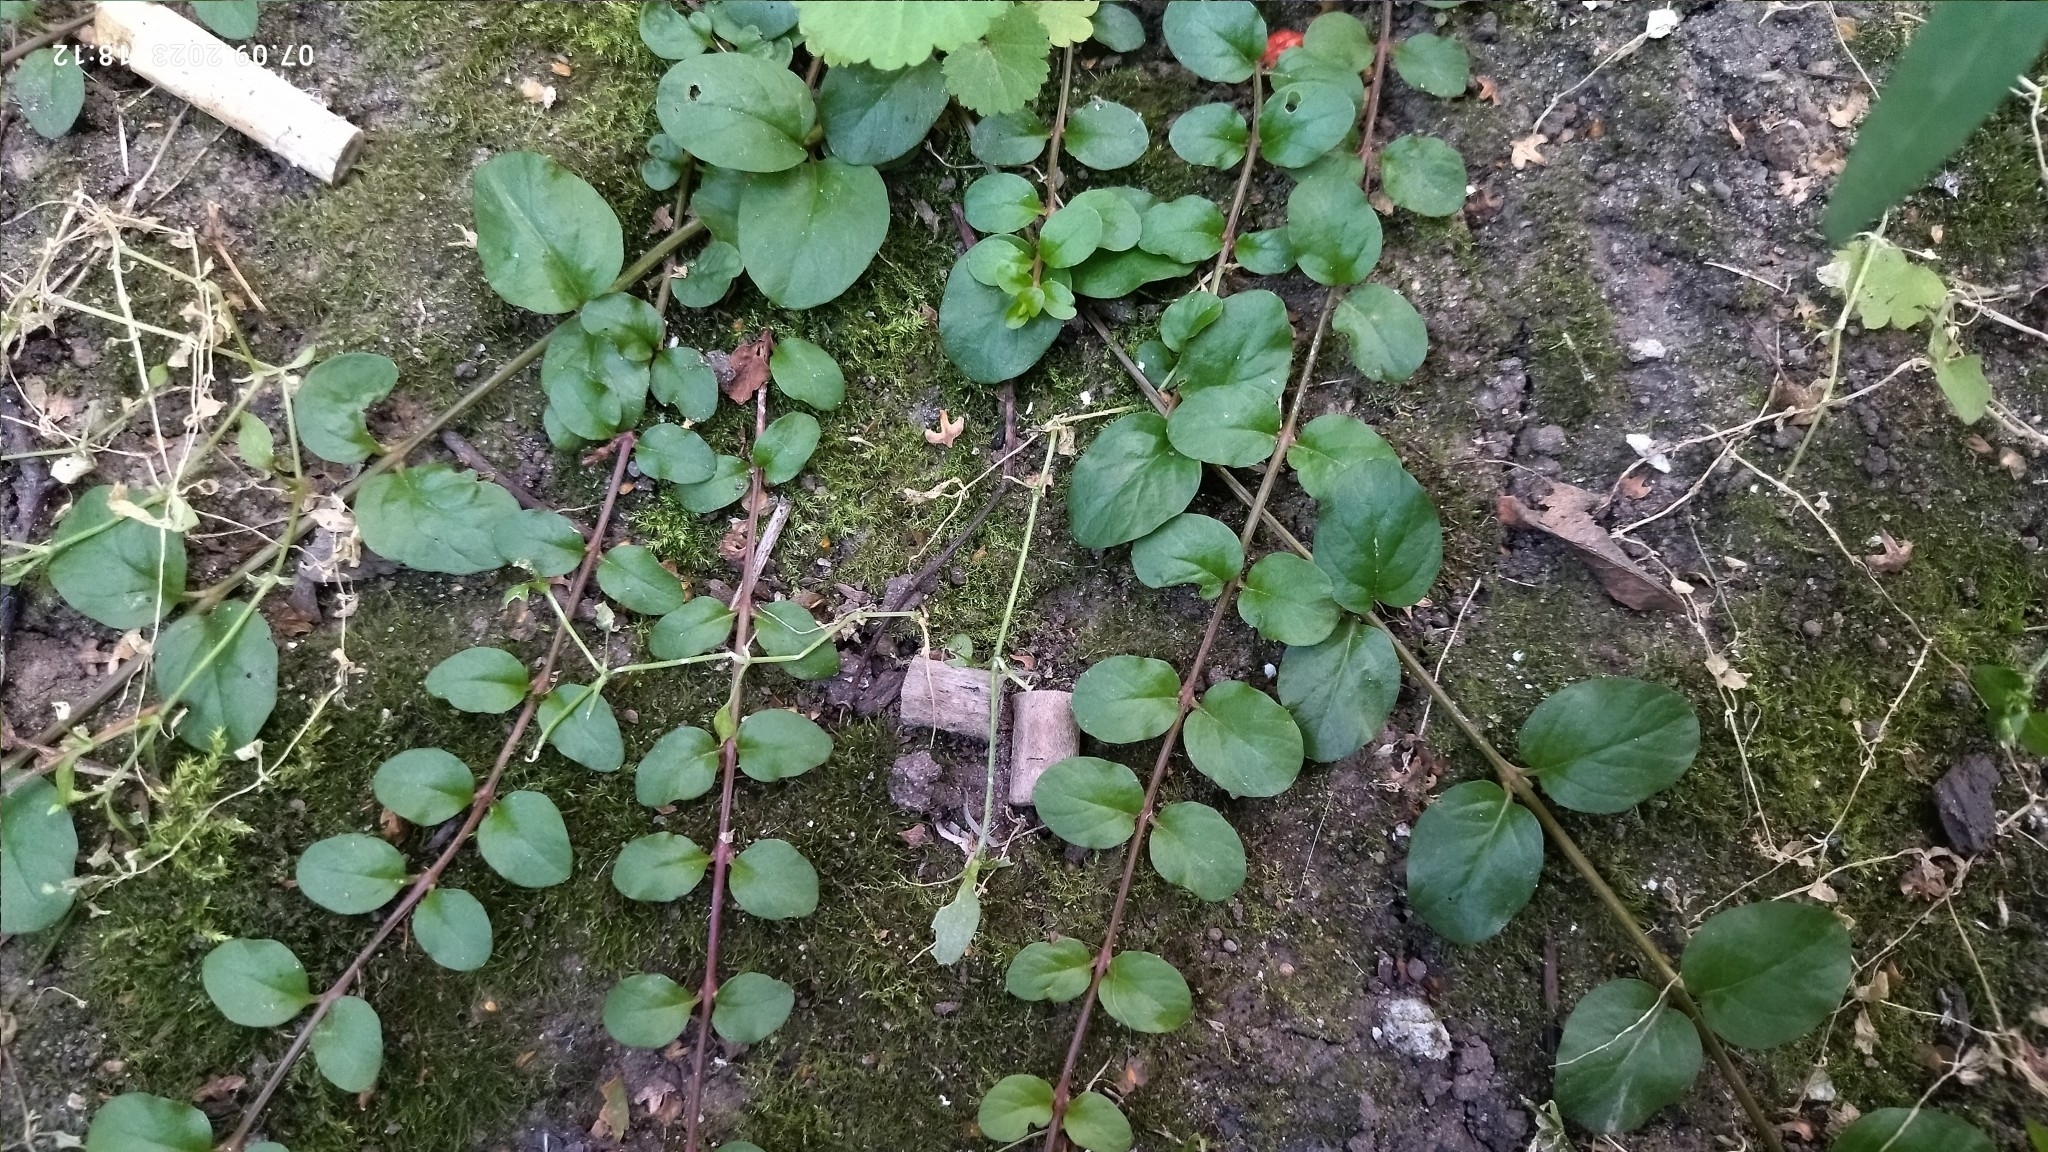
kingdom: Plantae
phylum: Tracheophyta
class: Magnoliopsida
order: Ericales
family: Primulaceae
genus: Lysimachia
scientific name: Lysimachia nummularia
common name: Moneywort
